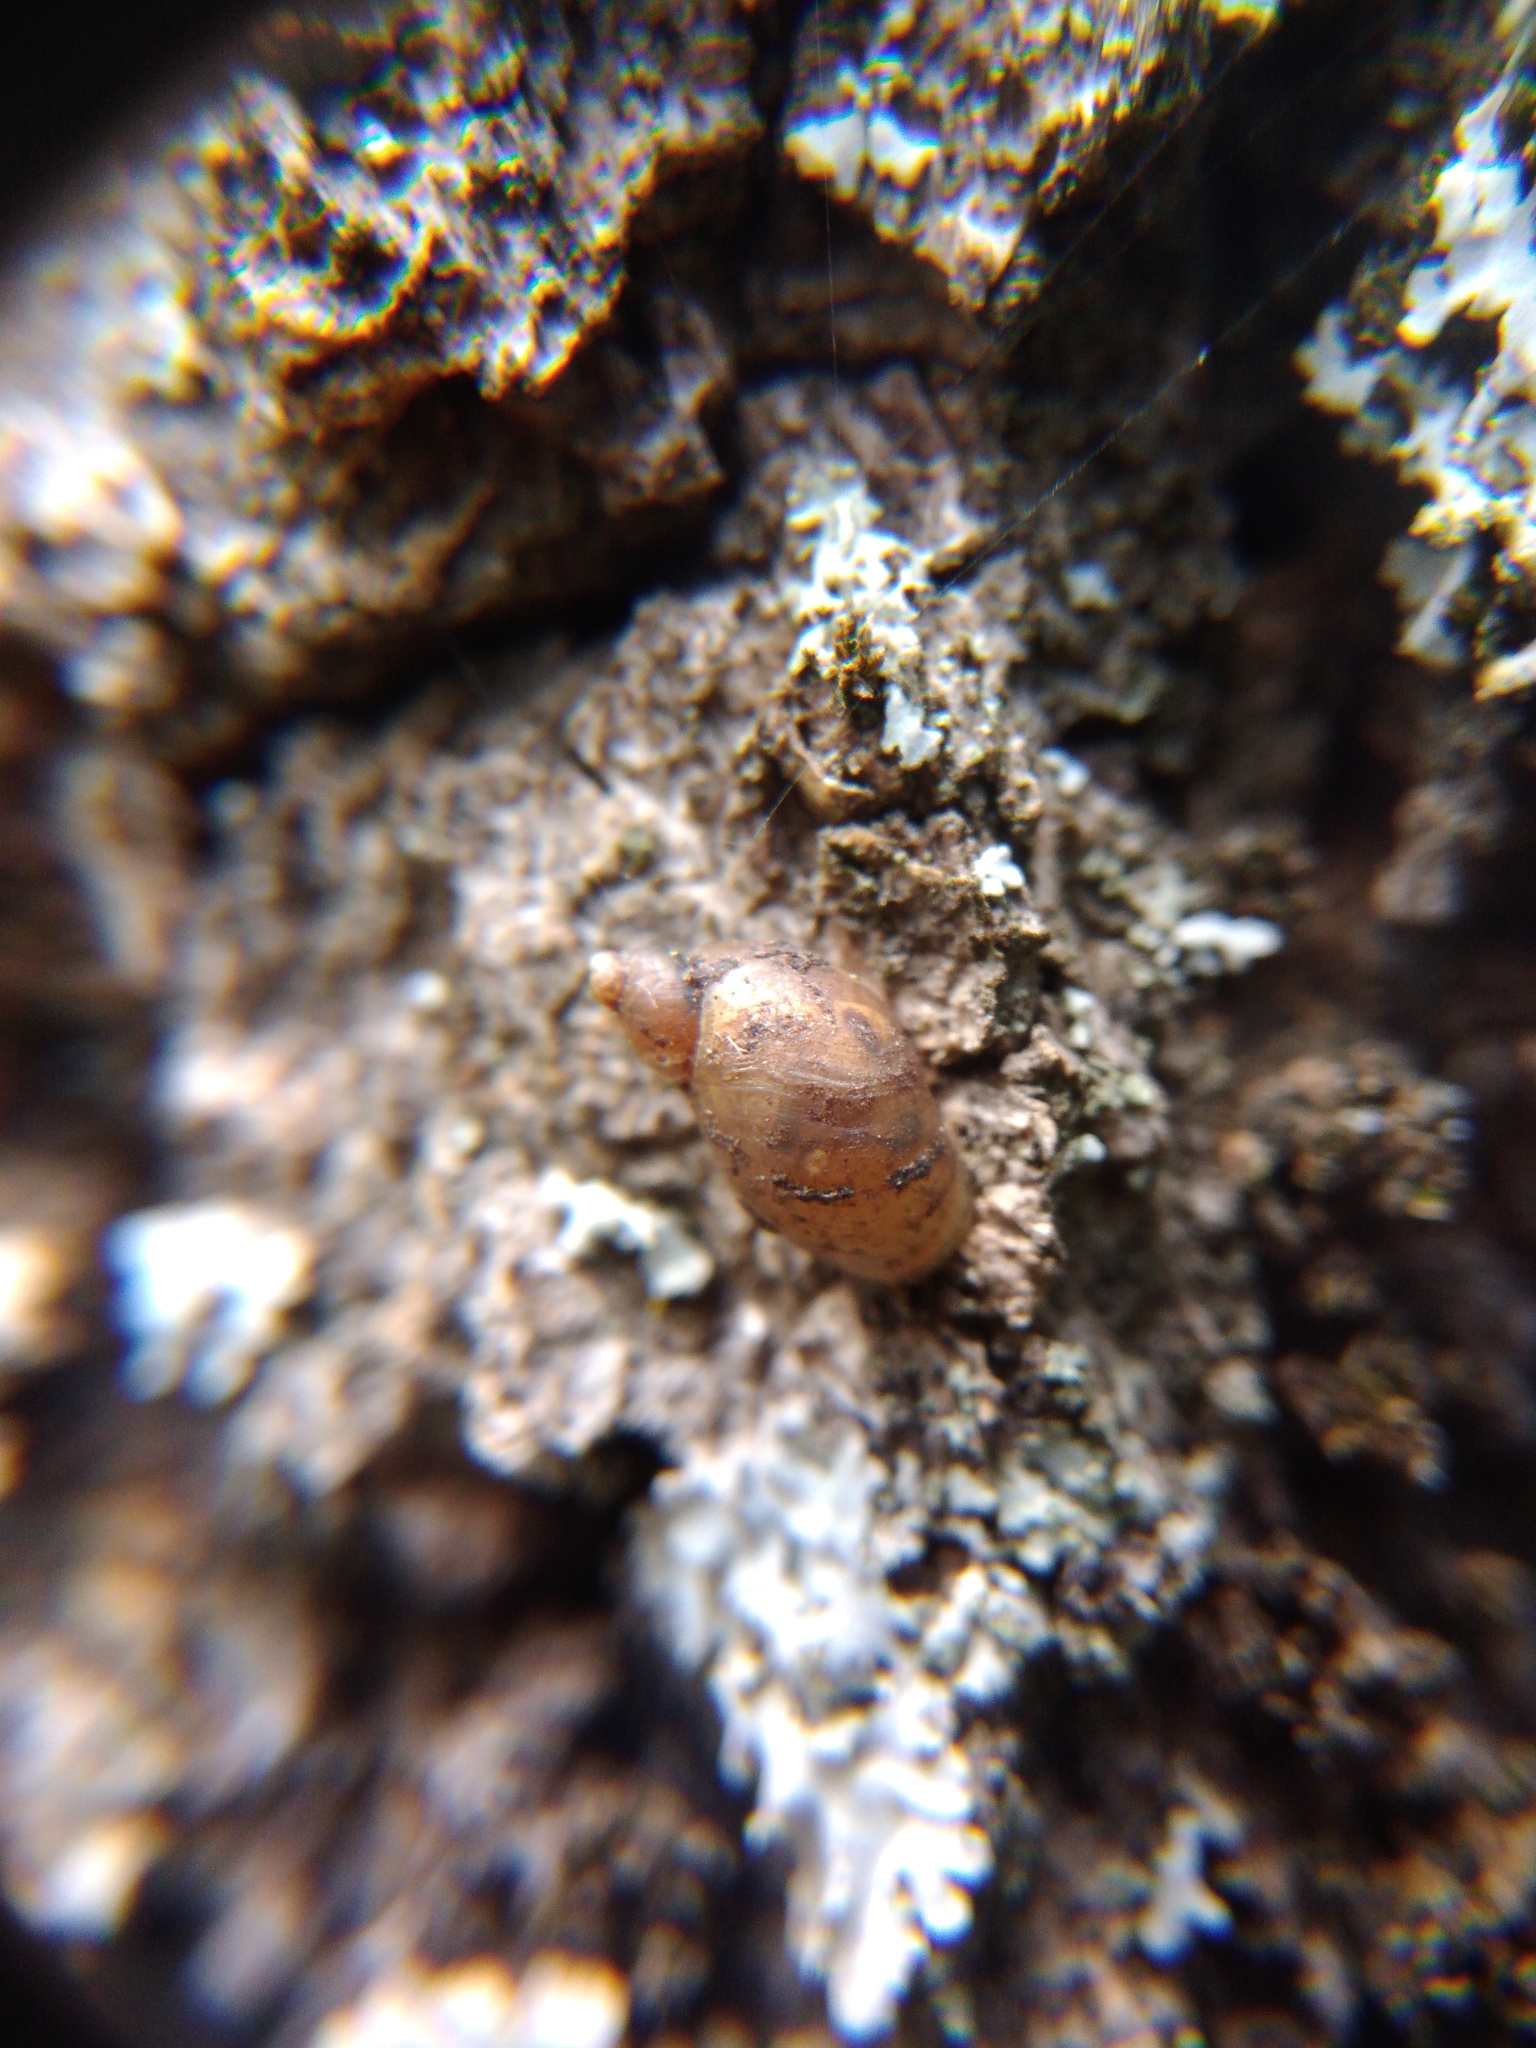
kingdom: Animalia
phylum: Mollusca
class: Gastropoda
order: Stylommatophora
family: Succineidae
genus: Succinella
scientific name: Succinella oblonga
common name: Small amber snail
